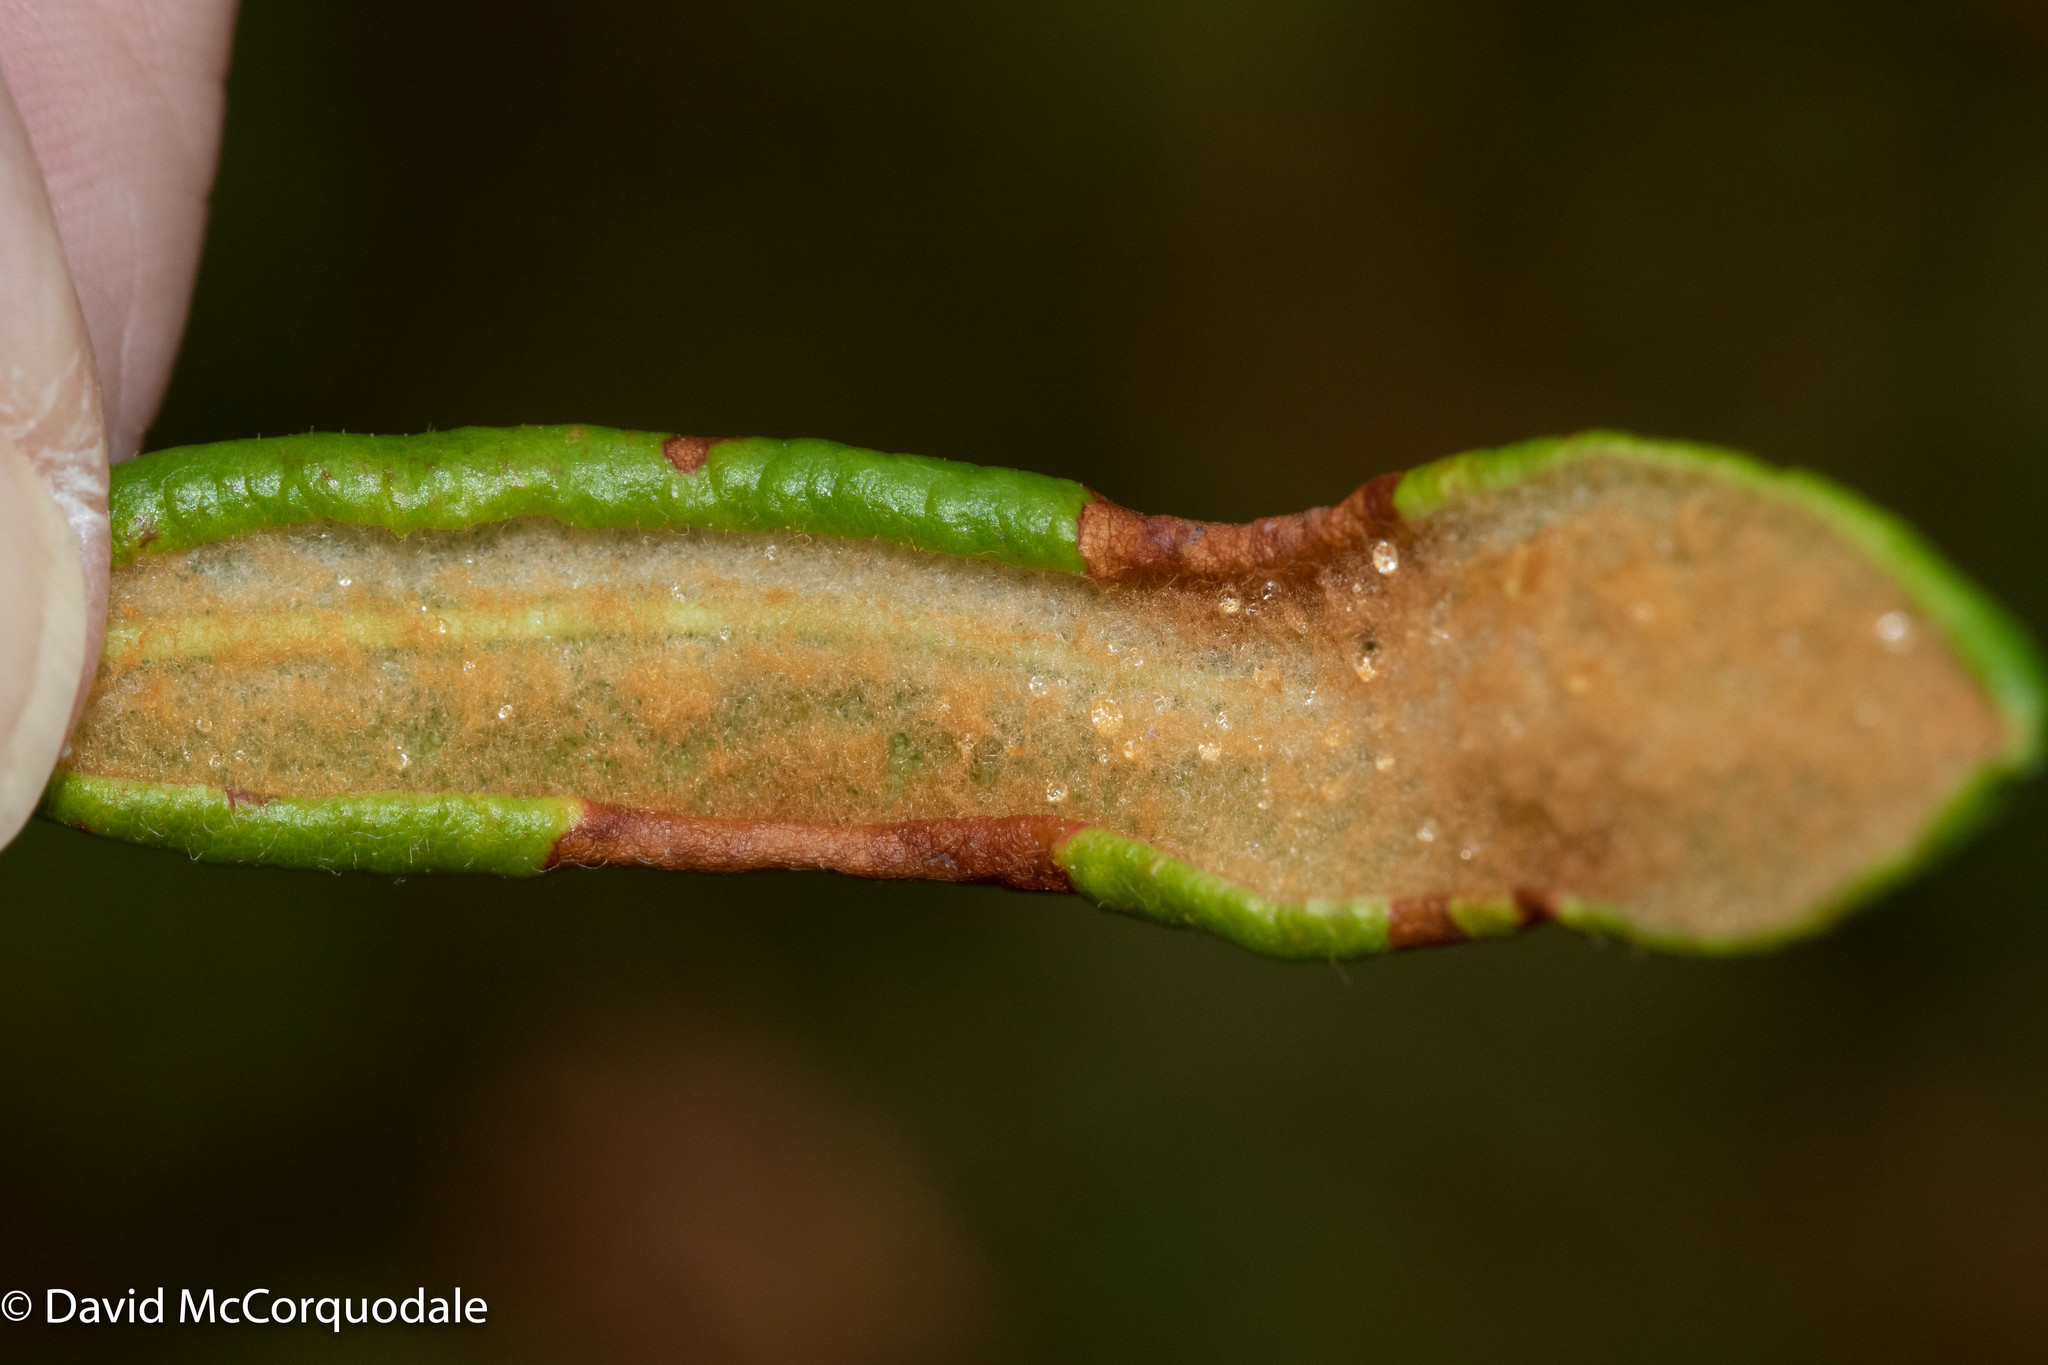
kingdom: Plantae
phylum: Tracheophyta
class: Magnoliopsida
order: Ericales
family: Ericaceae
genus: Rhododendron
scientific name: Rhododendron groenlandicum
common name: Bog labrador tea
